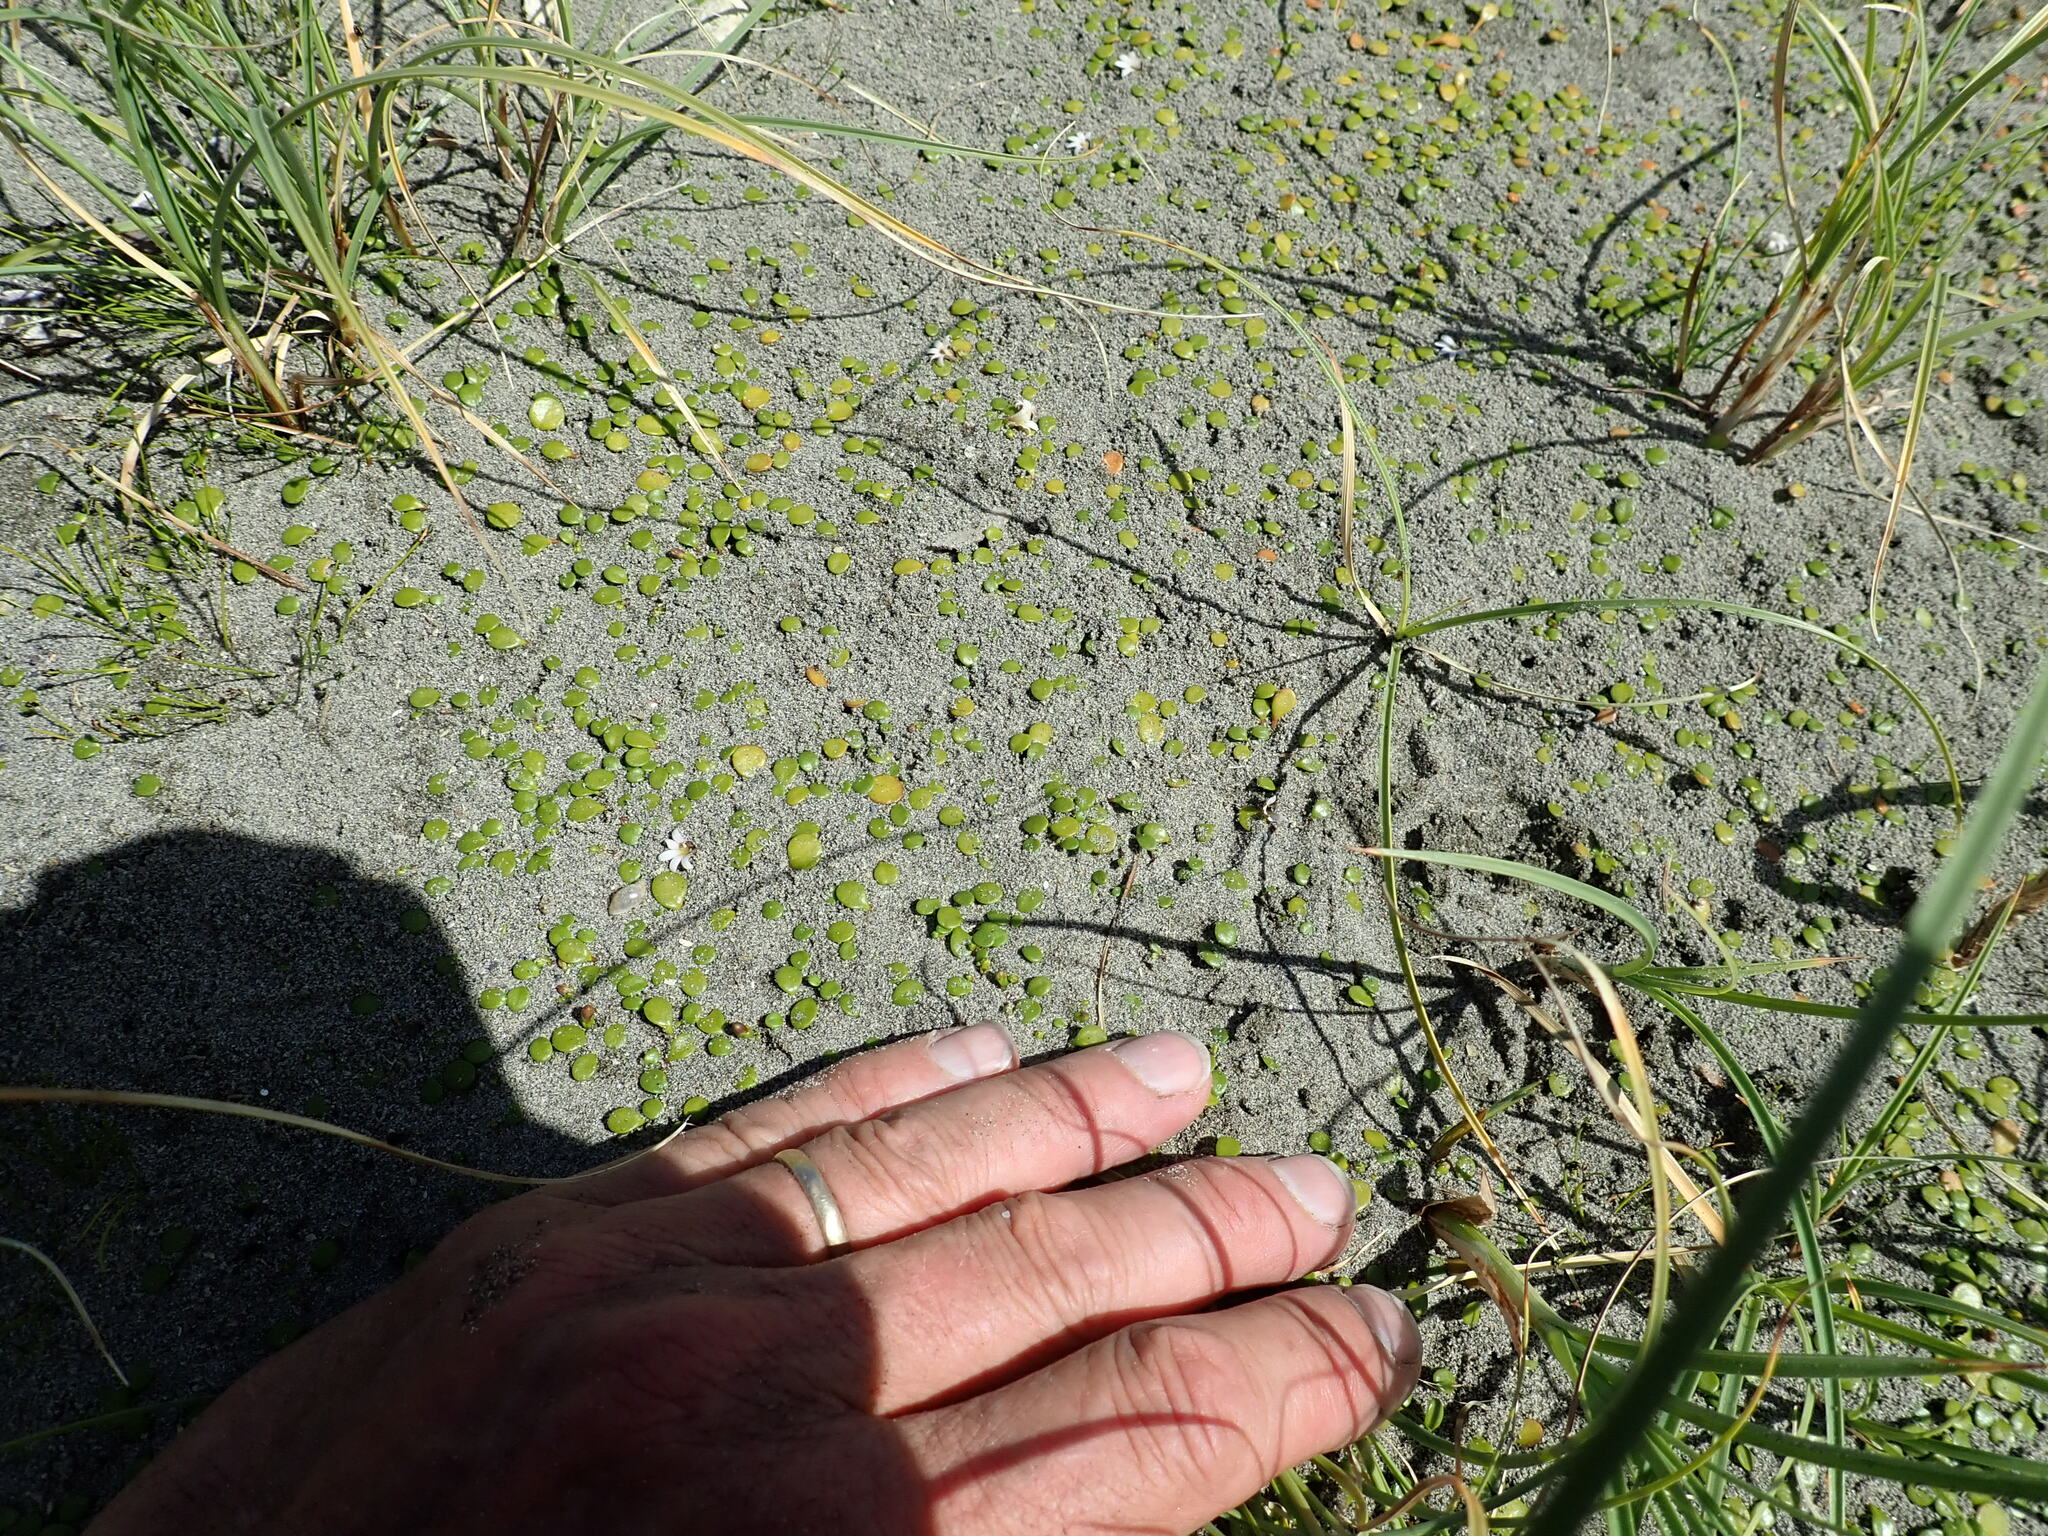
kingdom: Plantae
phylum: Tracheophyta
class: Magnoliopsida
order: Asterales
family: Goodeniaceae
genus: Goodenia
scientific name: Goodenia heenanii
